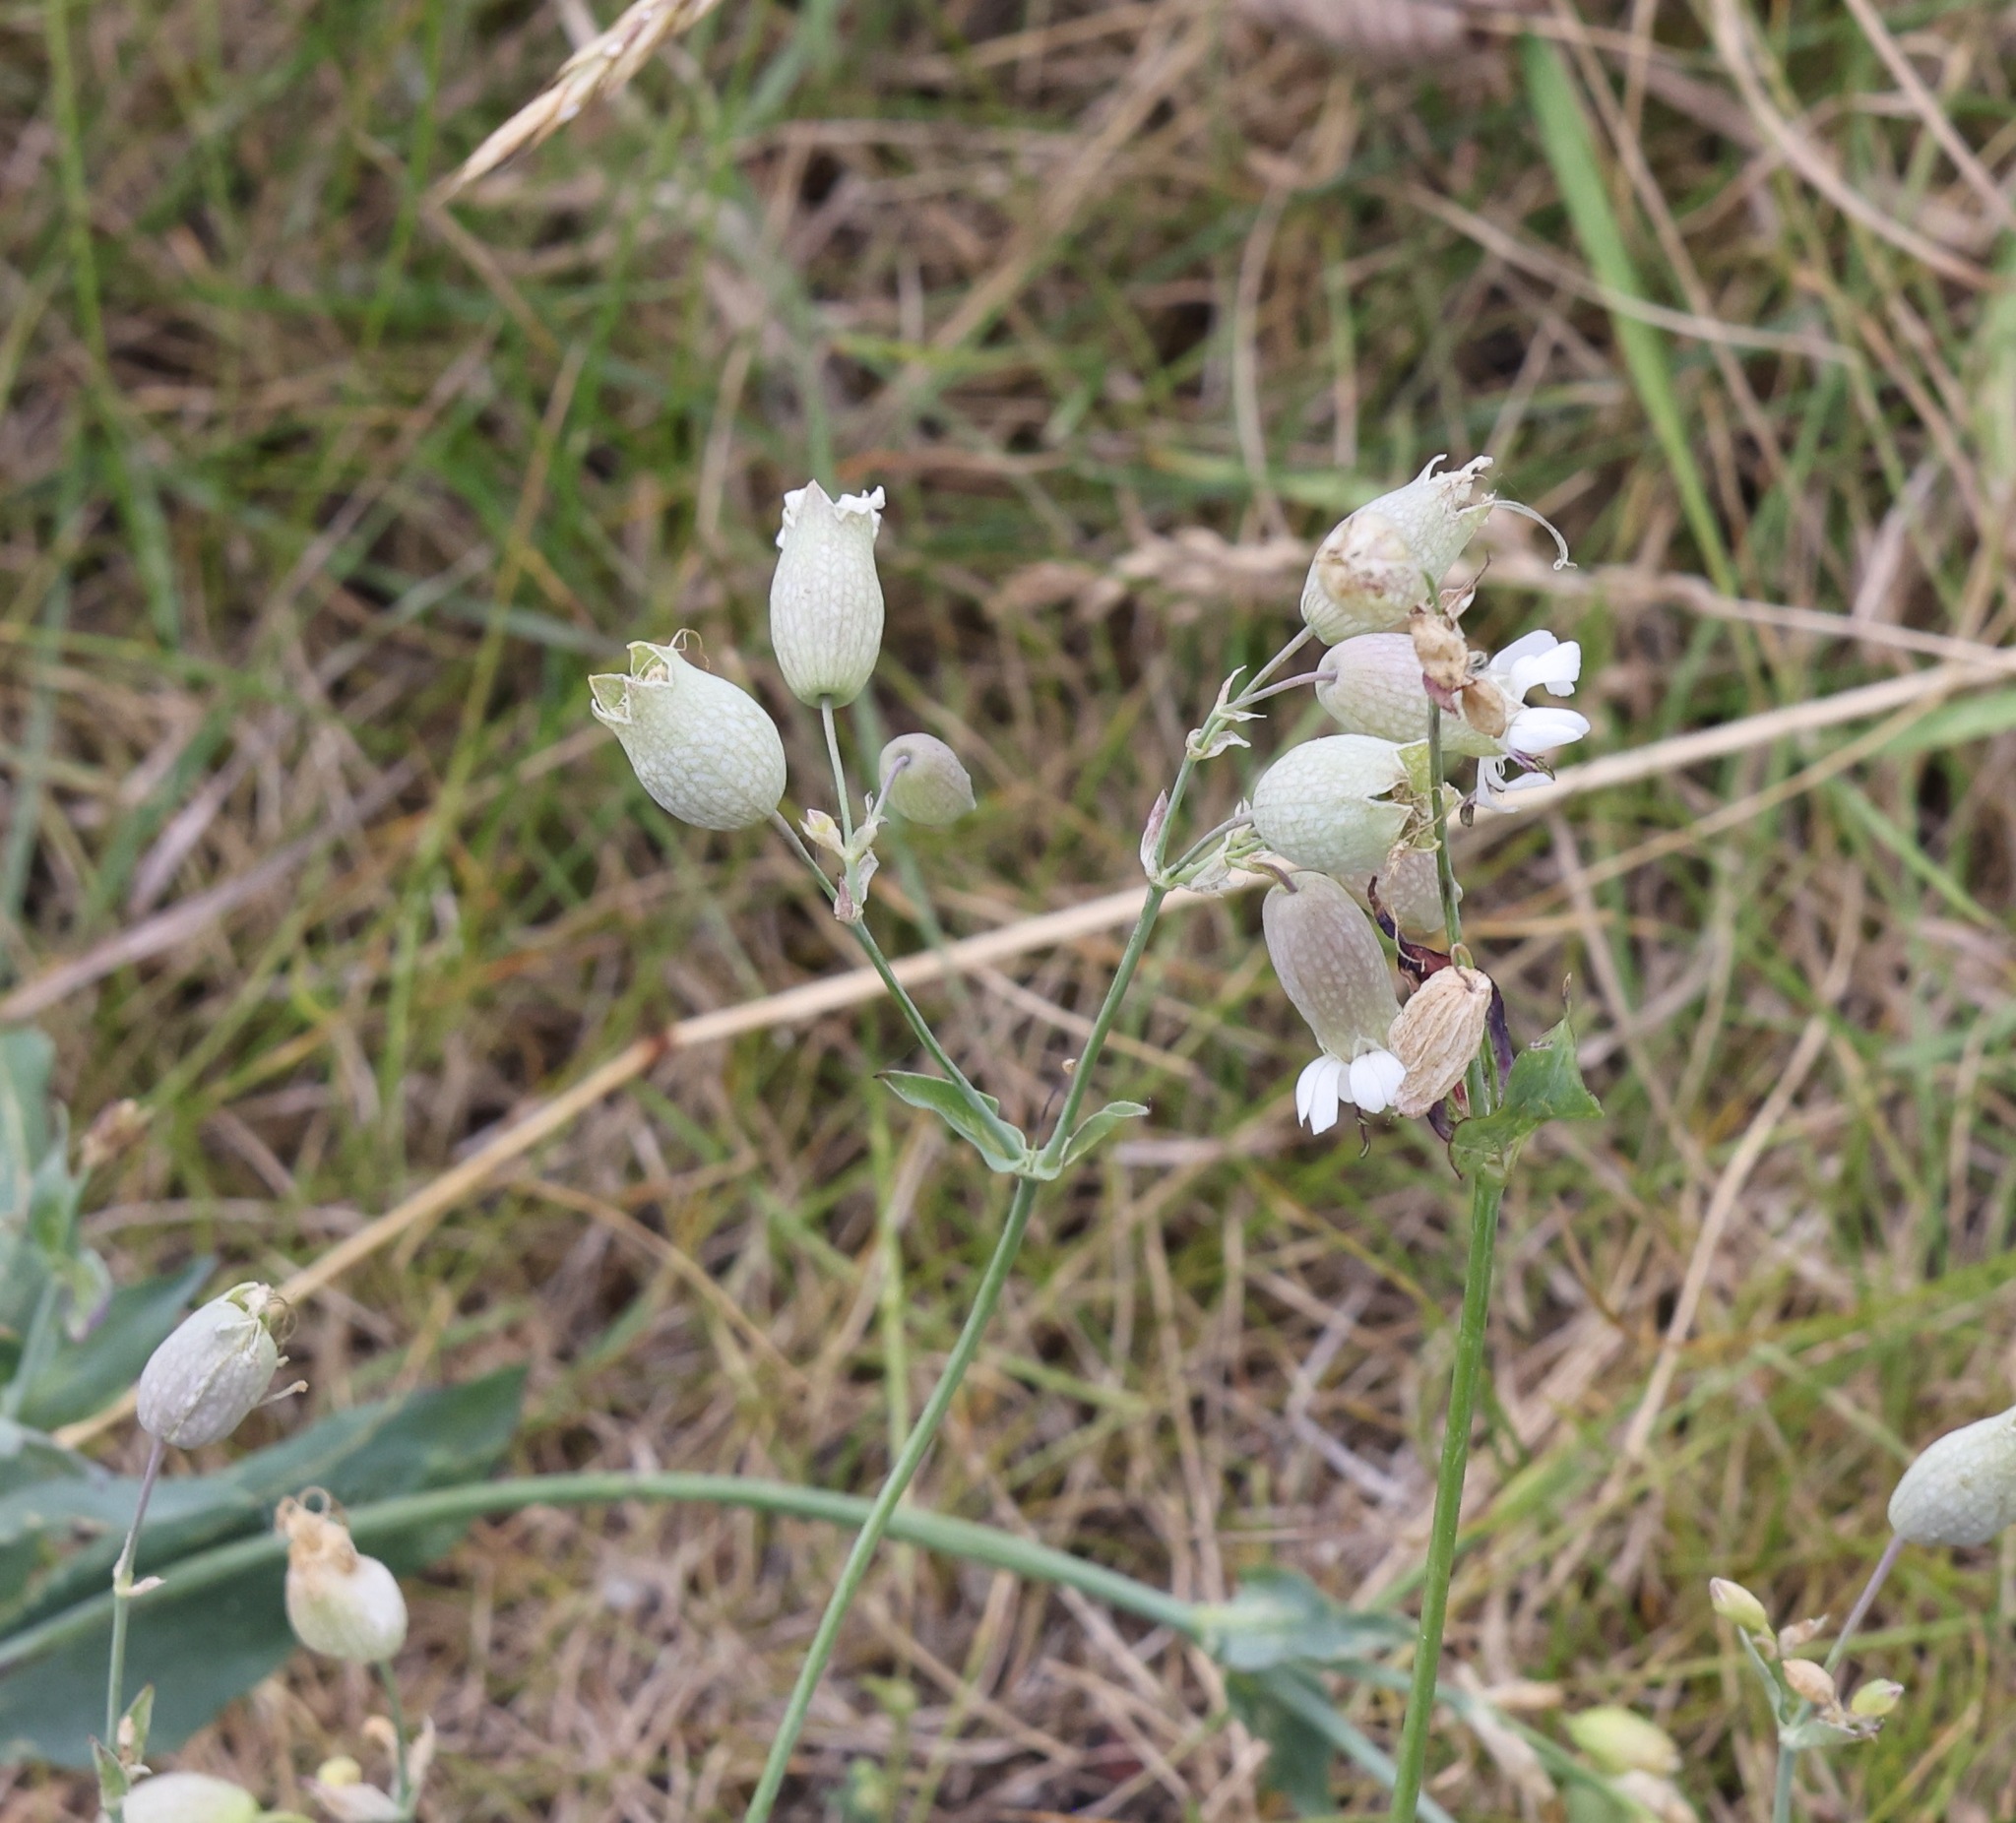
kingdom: Plantae
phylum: Tracheophyta
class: Magnoliopsida
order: Caryophyllales
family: Caryophyllaceae
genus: Silene
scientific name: Silene vulgaris
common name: Bladder campion
